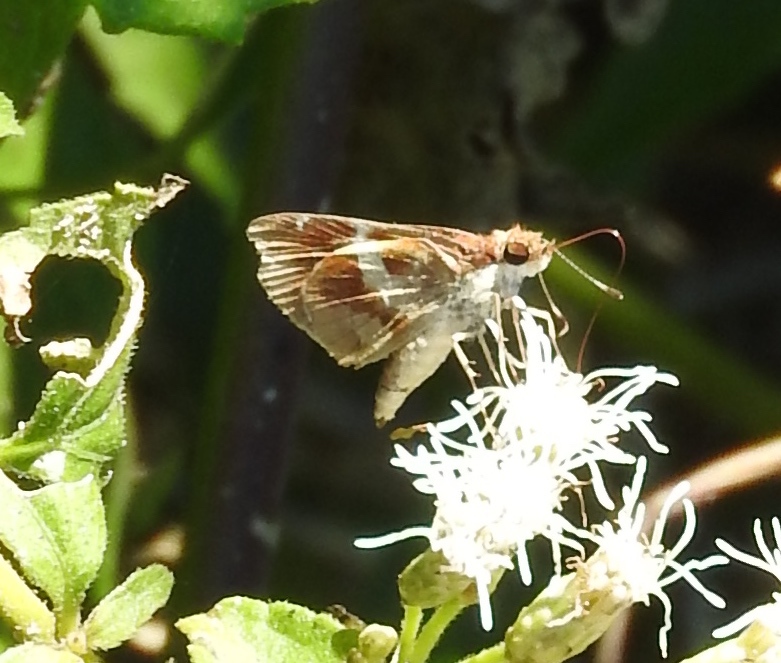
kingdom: Animalia
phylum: Arthropoda
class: Insecta
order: Lepidoptera
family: Hesperiidae
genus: Moeris
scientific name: Moeris crispinus
